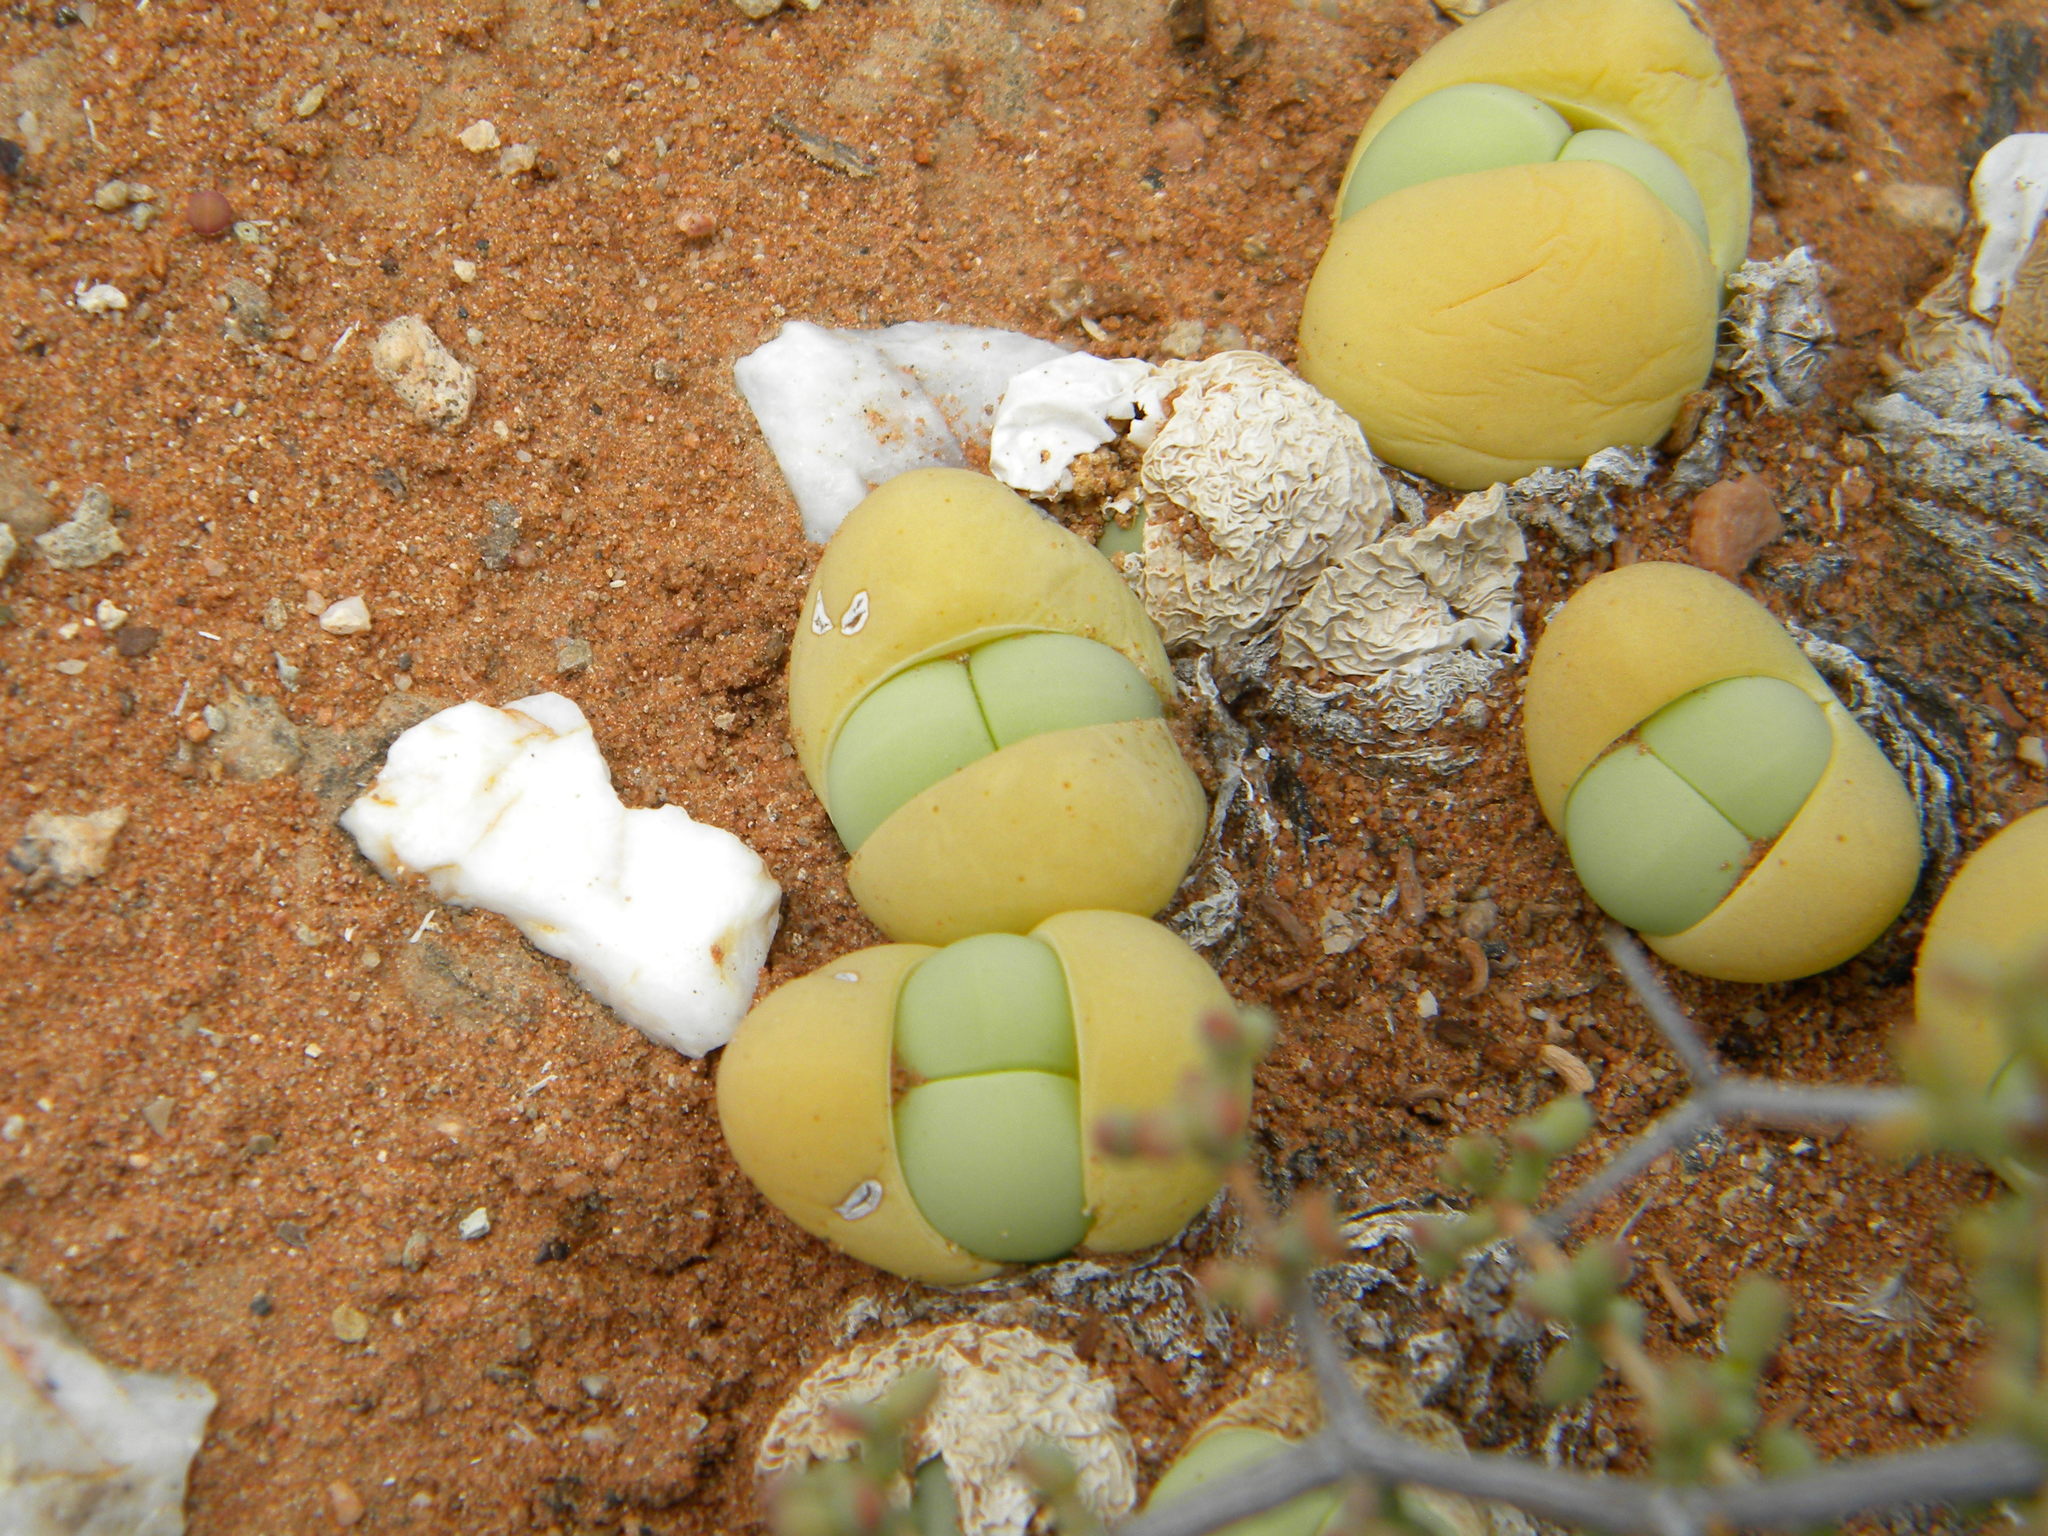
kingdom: Plantae
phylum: Tracheophyta
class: Magnoliopsida
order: Caryophyllales
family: Aizoaceae
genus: Gibbaeum
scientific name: Gibbaeum heathii
